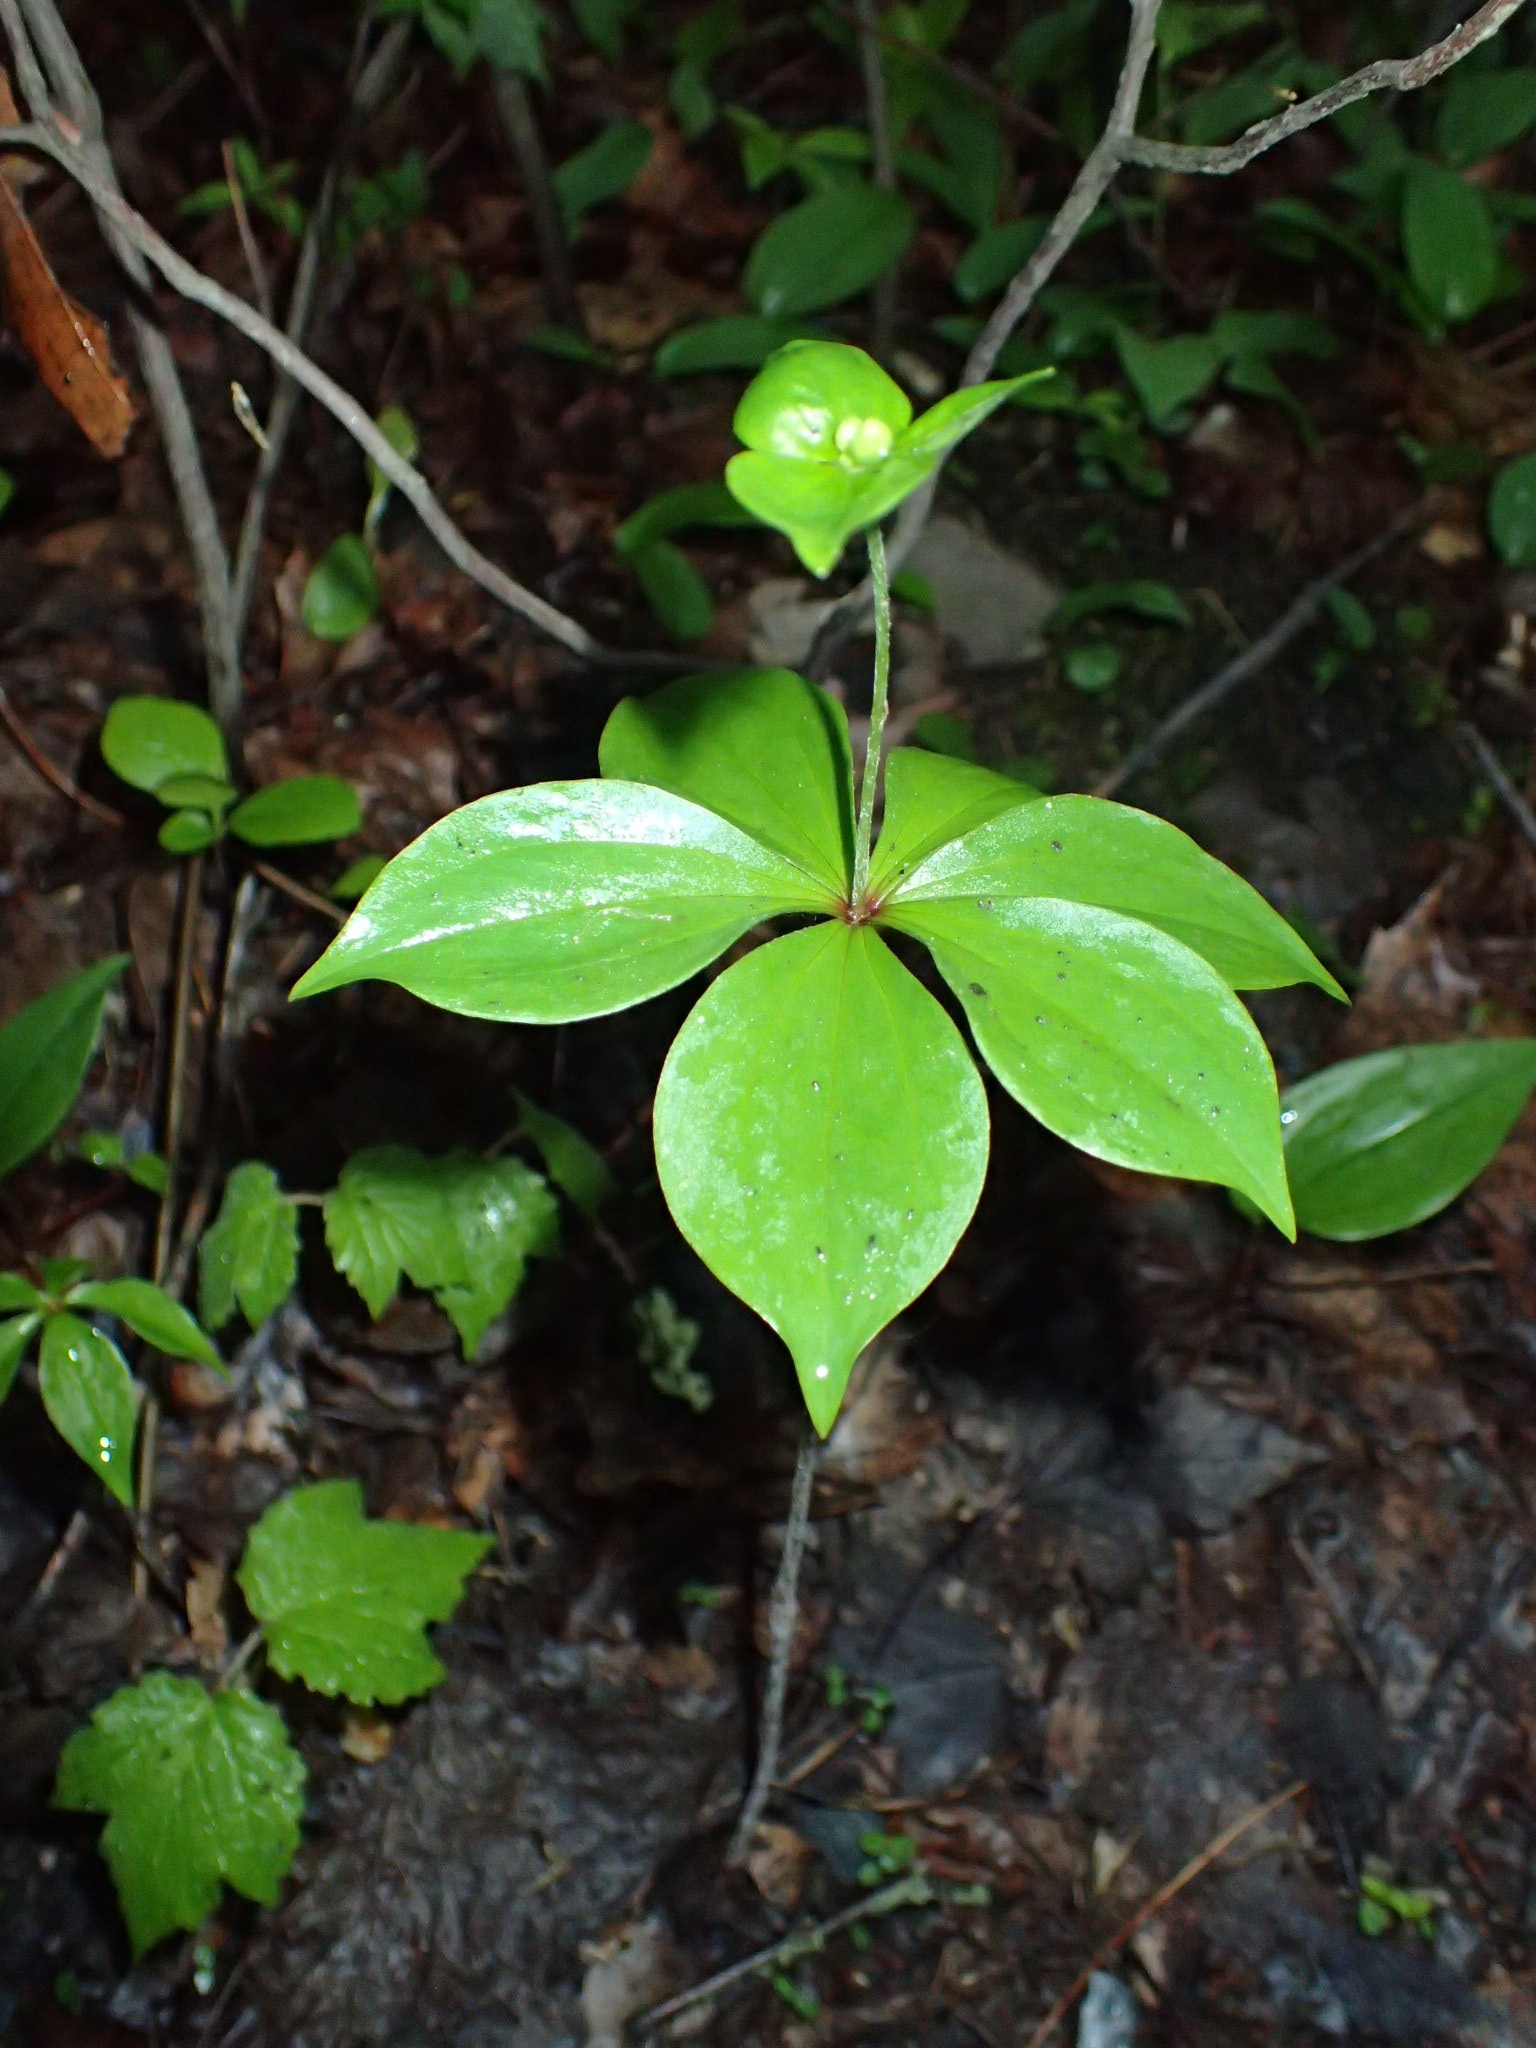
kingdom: Plantae
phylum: Tracheophyta
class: Liliopsida
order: Liliales
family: Liliaceae
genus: Medeola
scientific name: Medeola virginiana
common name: Indian cucumber-root
